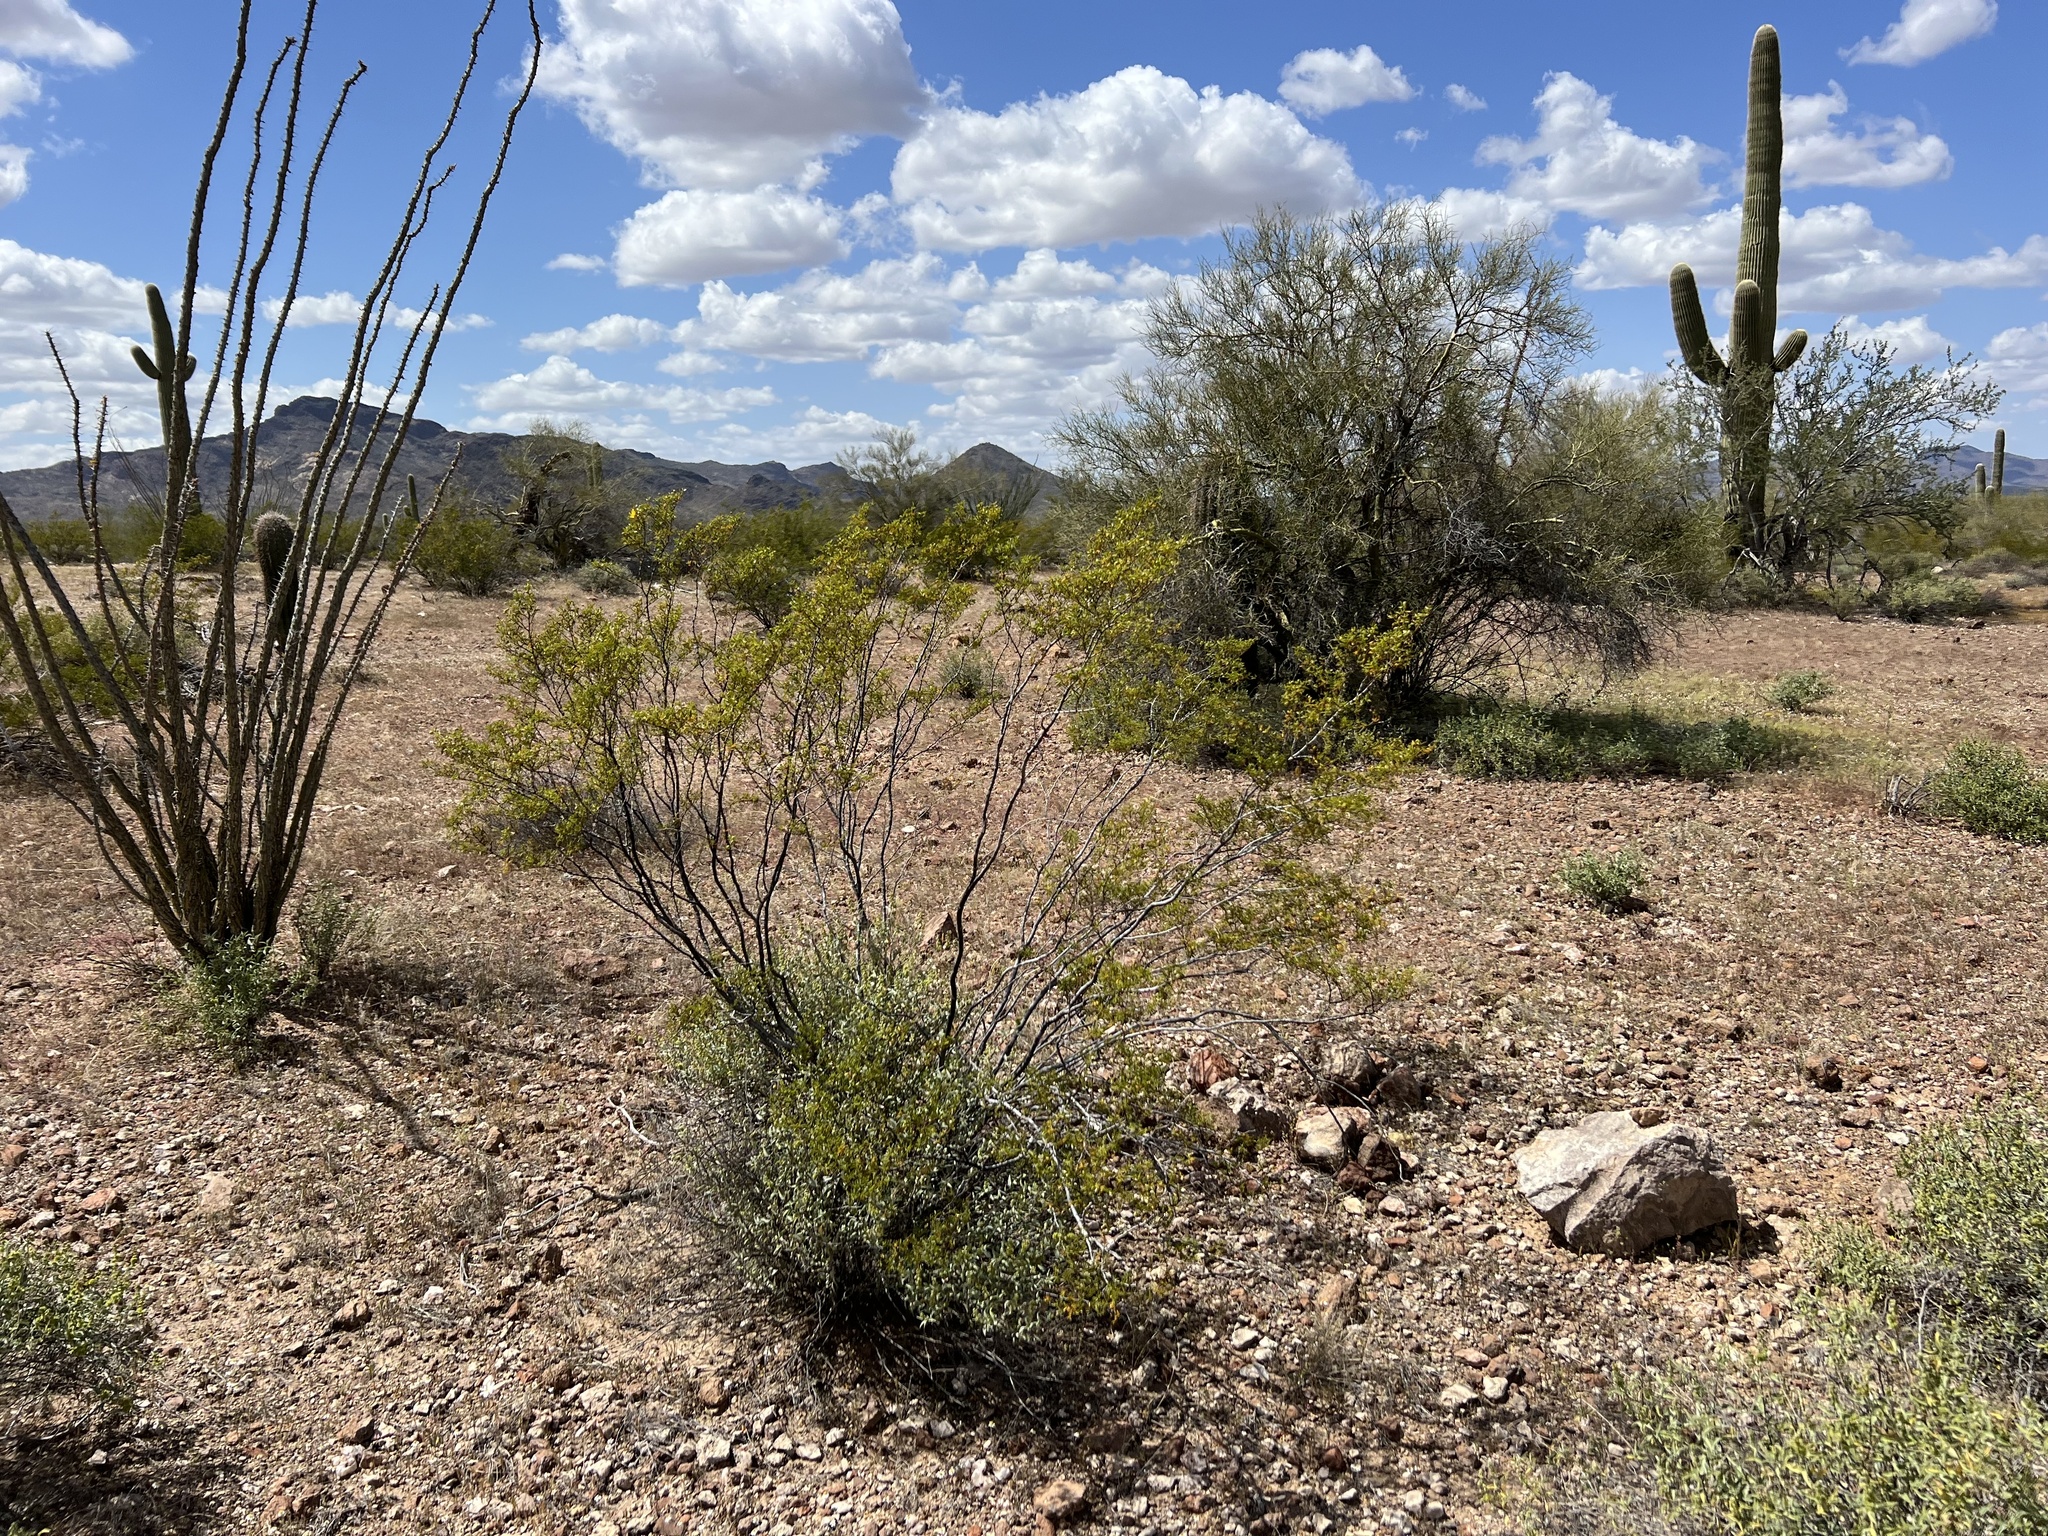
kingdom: Plantae
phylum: Tracheophyta
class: Magnoliopsida
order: Zygophyllales
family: Zygophyllaceae
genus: Larrea
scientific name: Larrea tridentata
